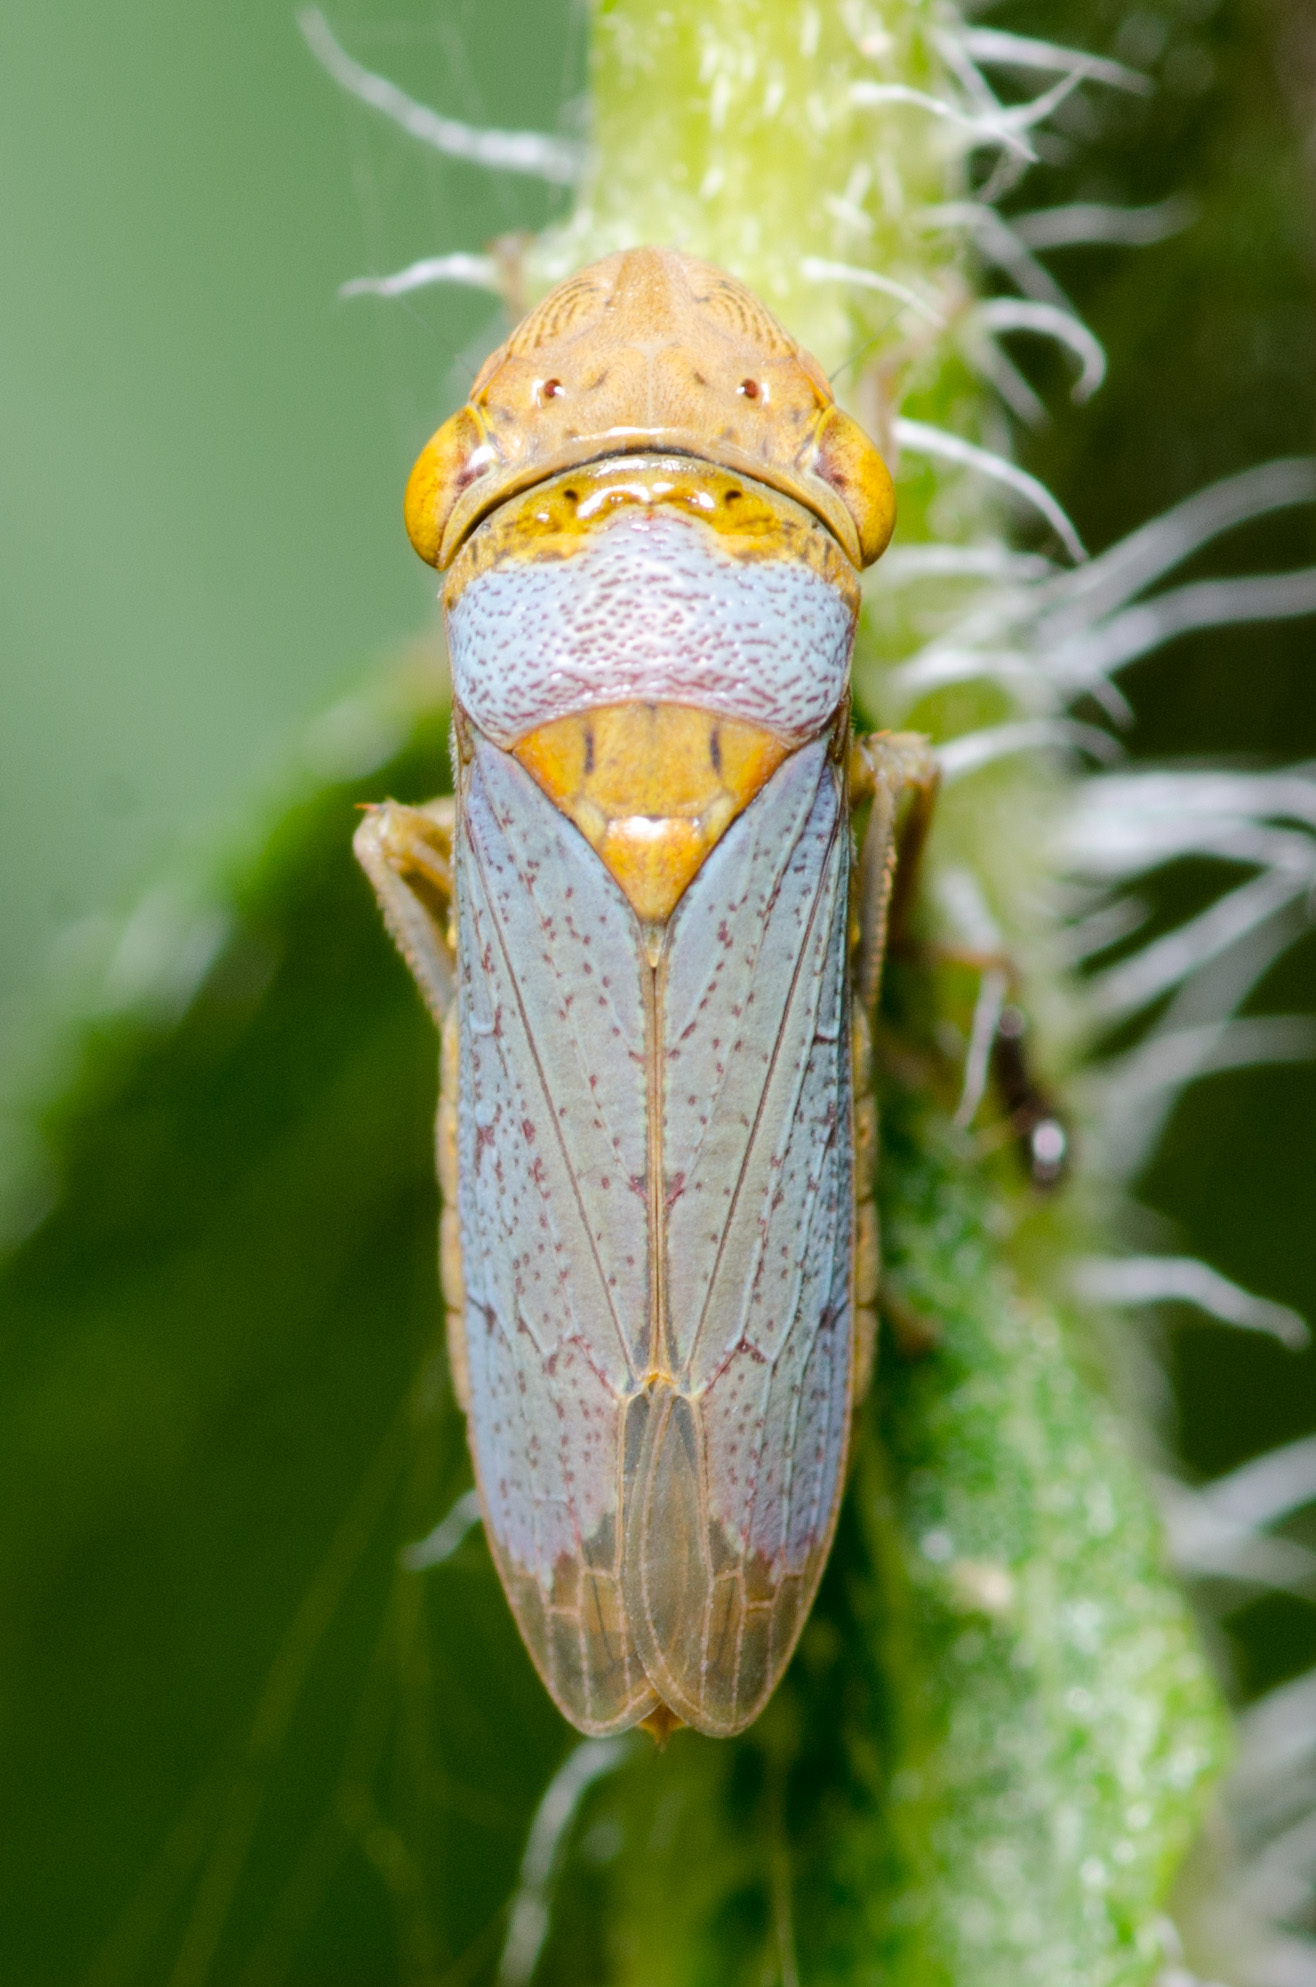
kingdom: Animalia
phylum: Arthropoda
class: Insecta
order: Hemiptera
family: Cicadellidae
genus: Oncometopia
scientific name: Oncometopia hamiltoni
